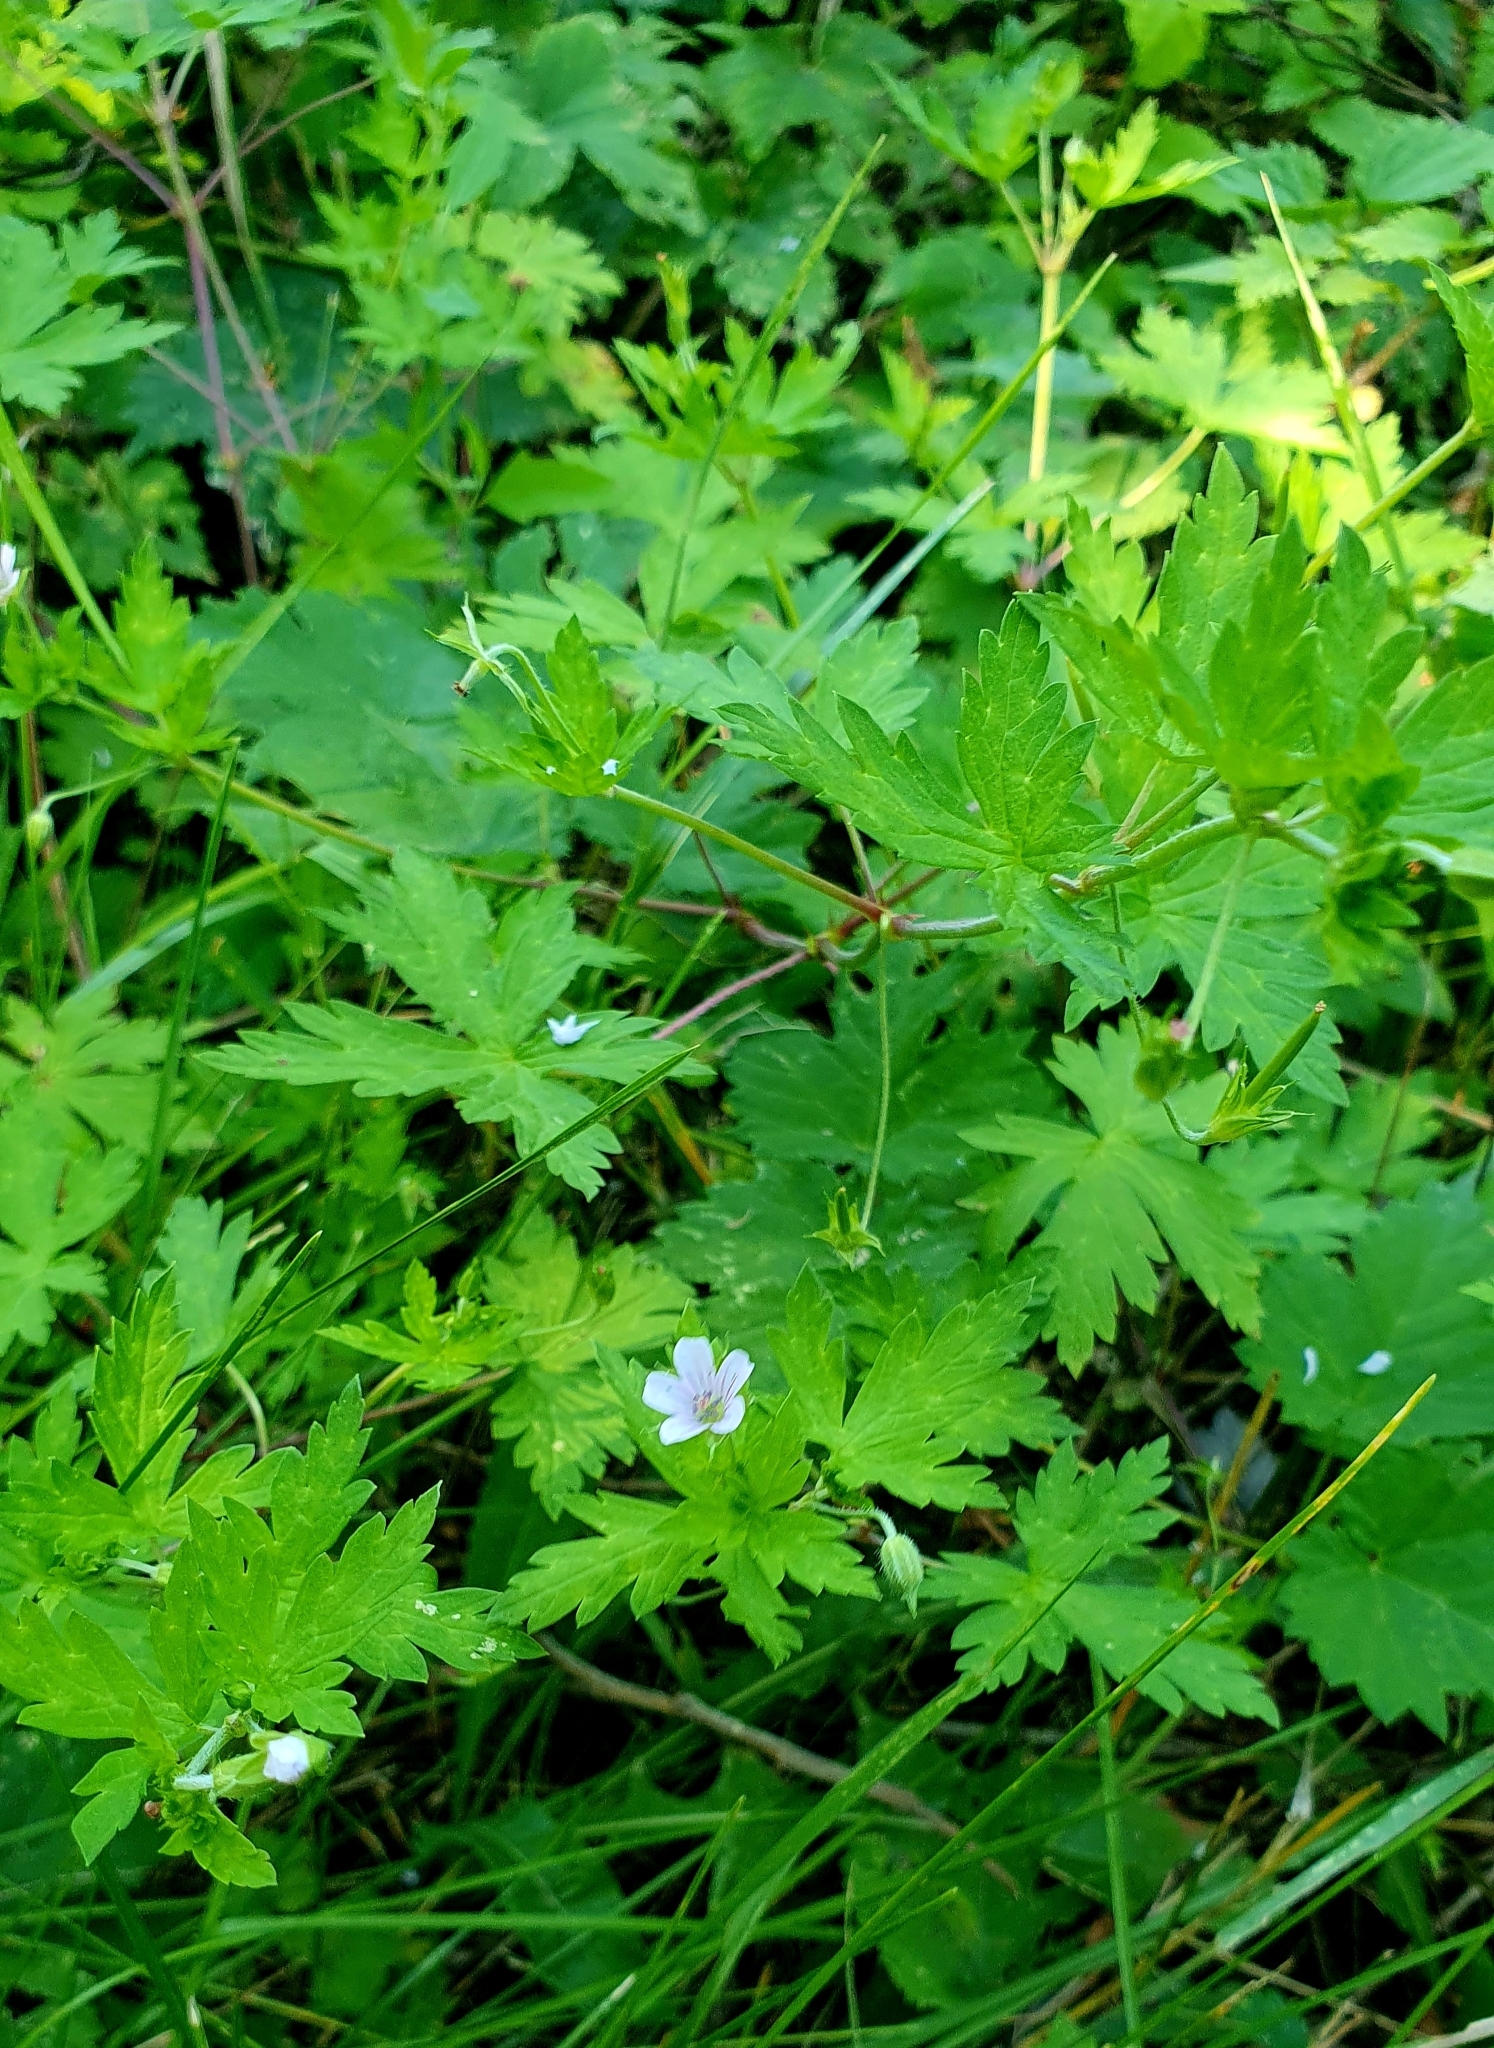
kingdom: Plantae
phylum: Tracheophyta
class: Magnoliopsida
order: Geraniales
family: Geraniaceae
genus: Geranium
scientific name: Geranium sibiricum
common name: Siberian crane's-bill
